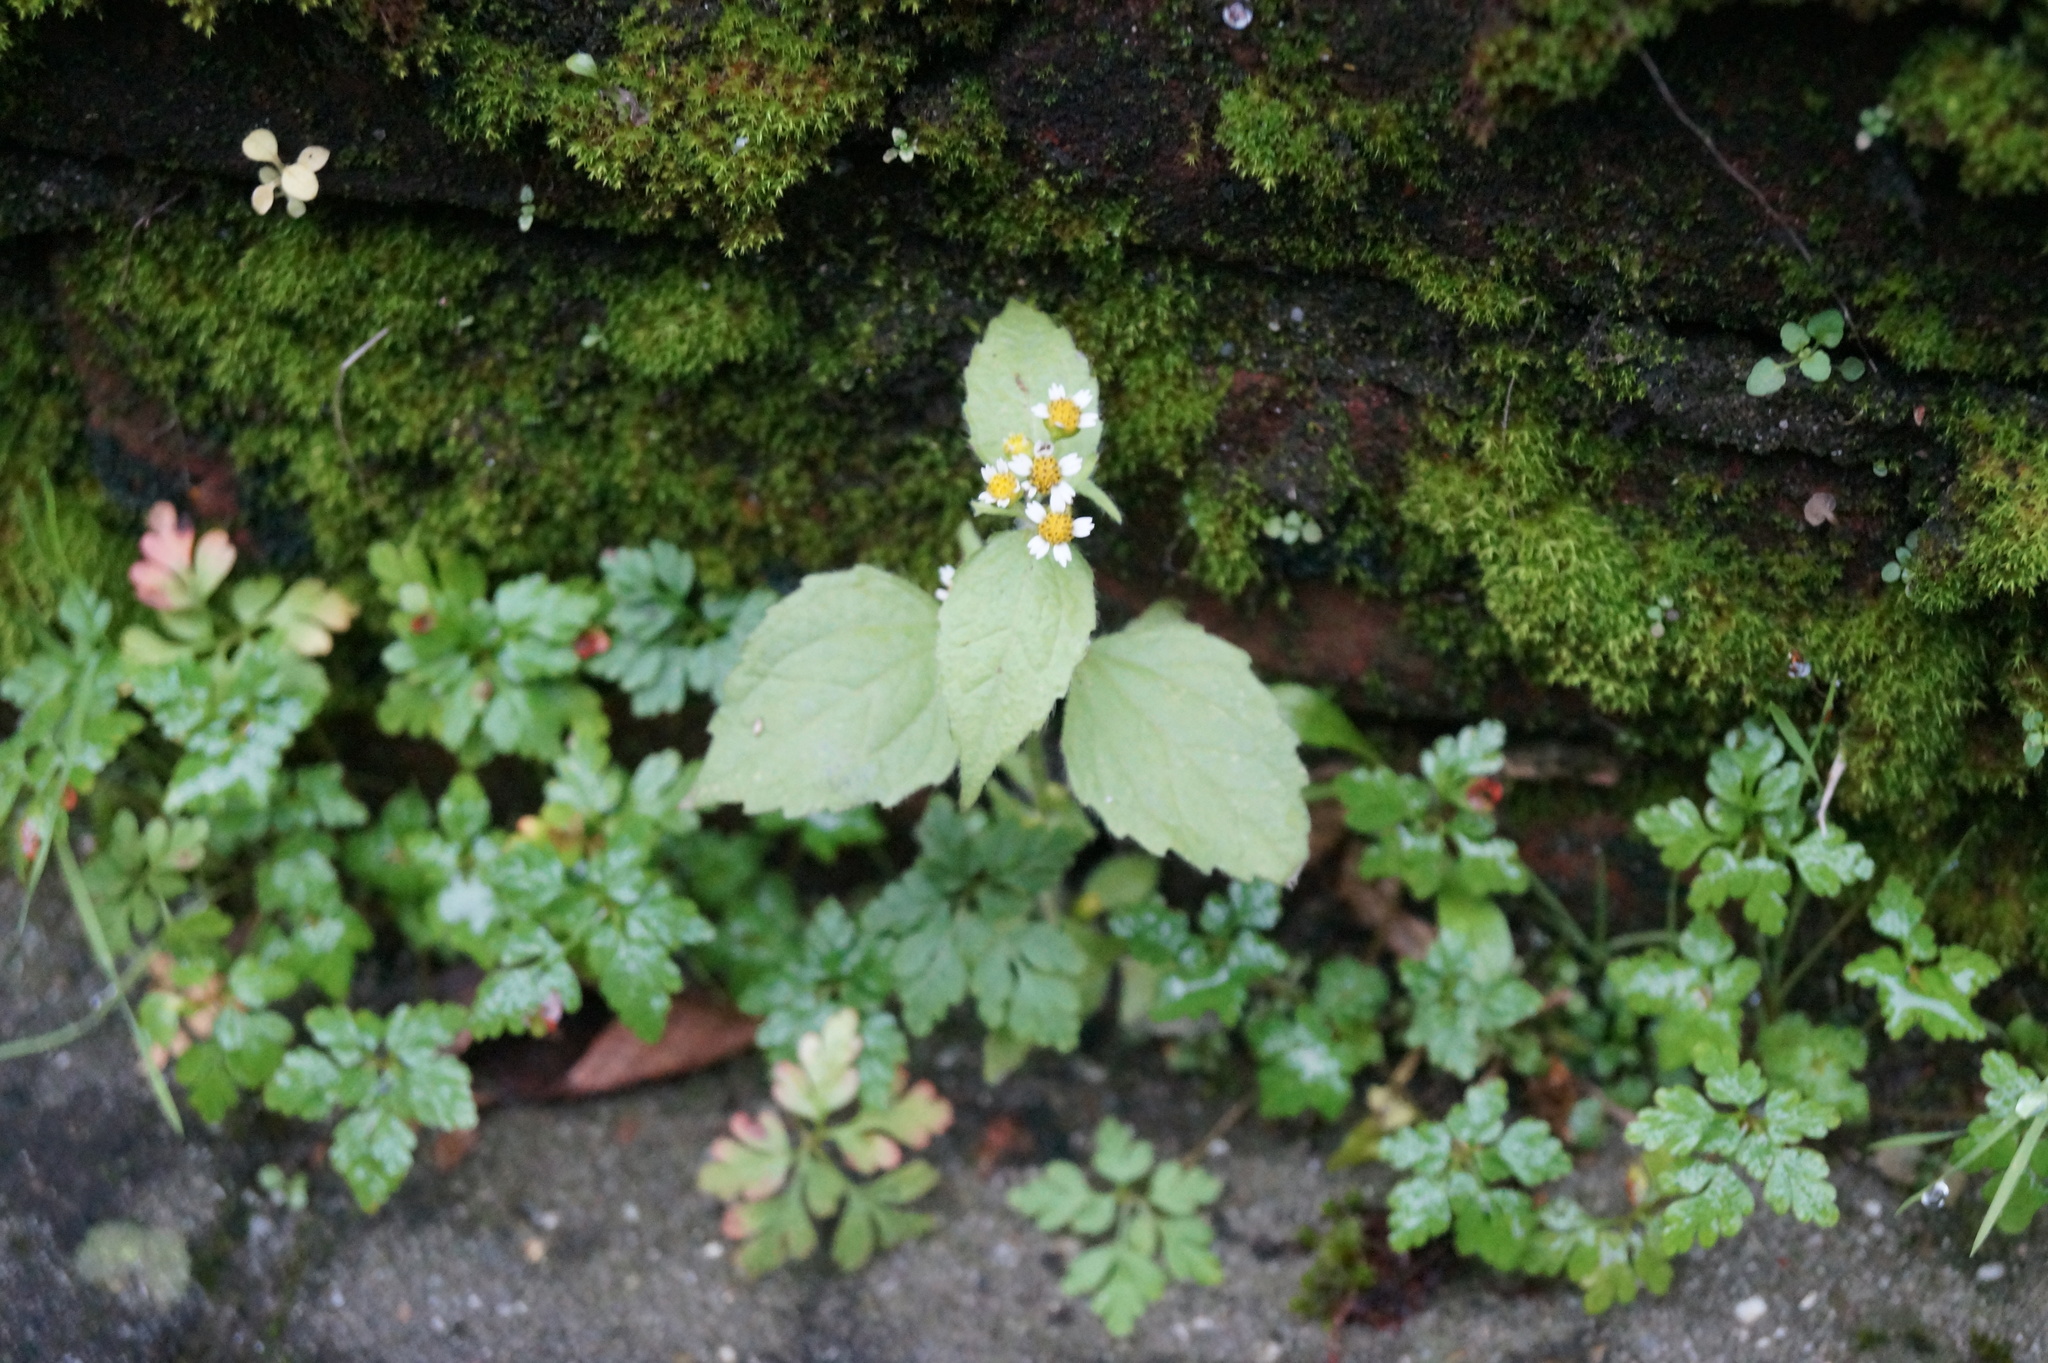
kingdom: Plantae
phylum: Tracheophyta
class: Magnoliopsida
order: Asterales
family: Asteraceae
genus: Galinsoga
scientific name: Galinsoga quadriradiata
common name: Shaggy soldier
